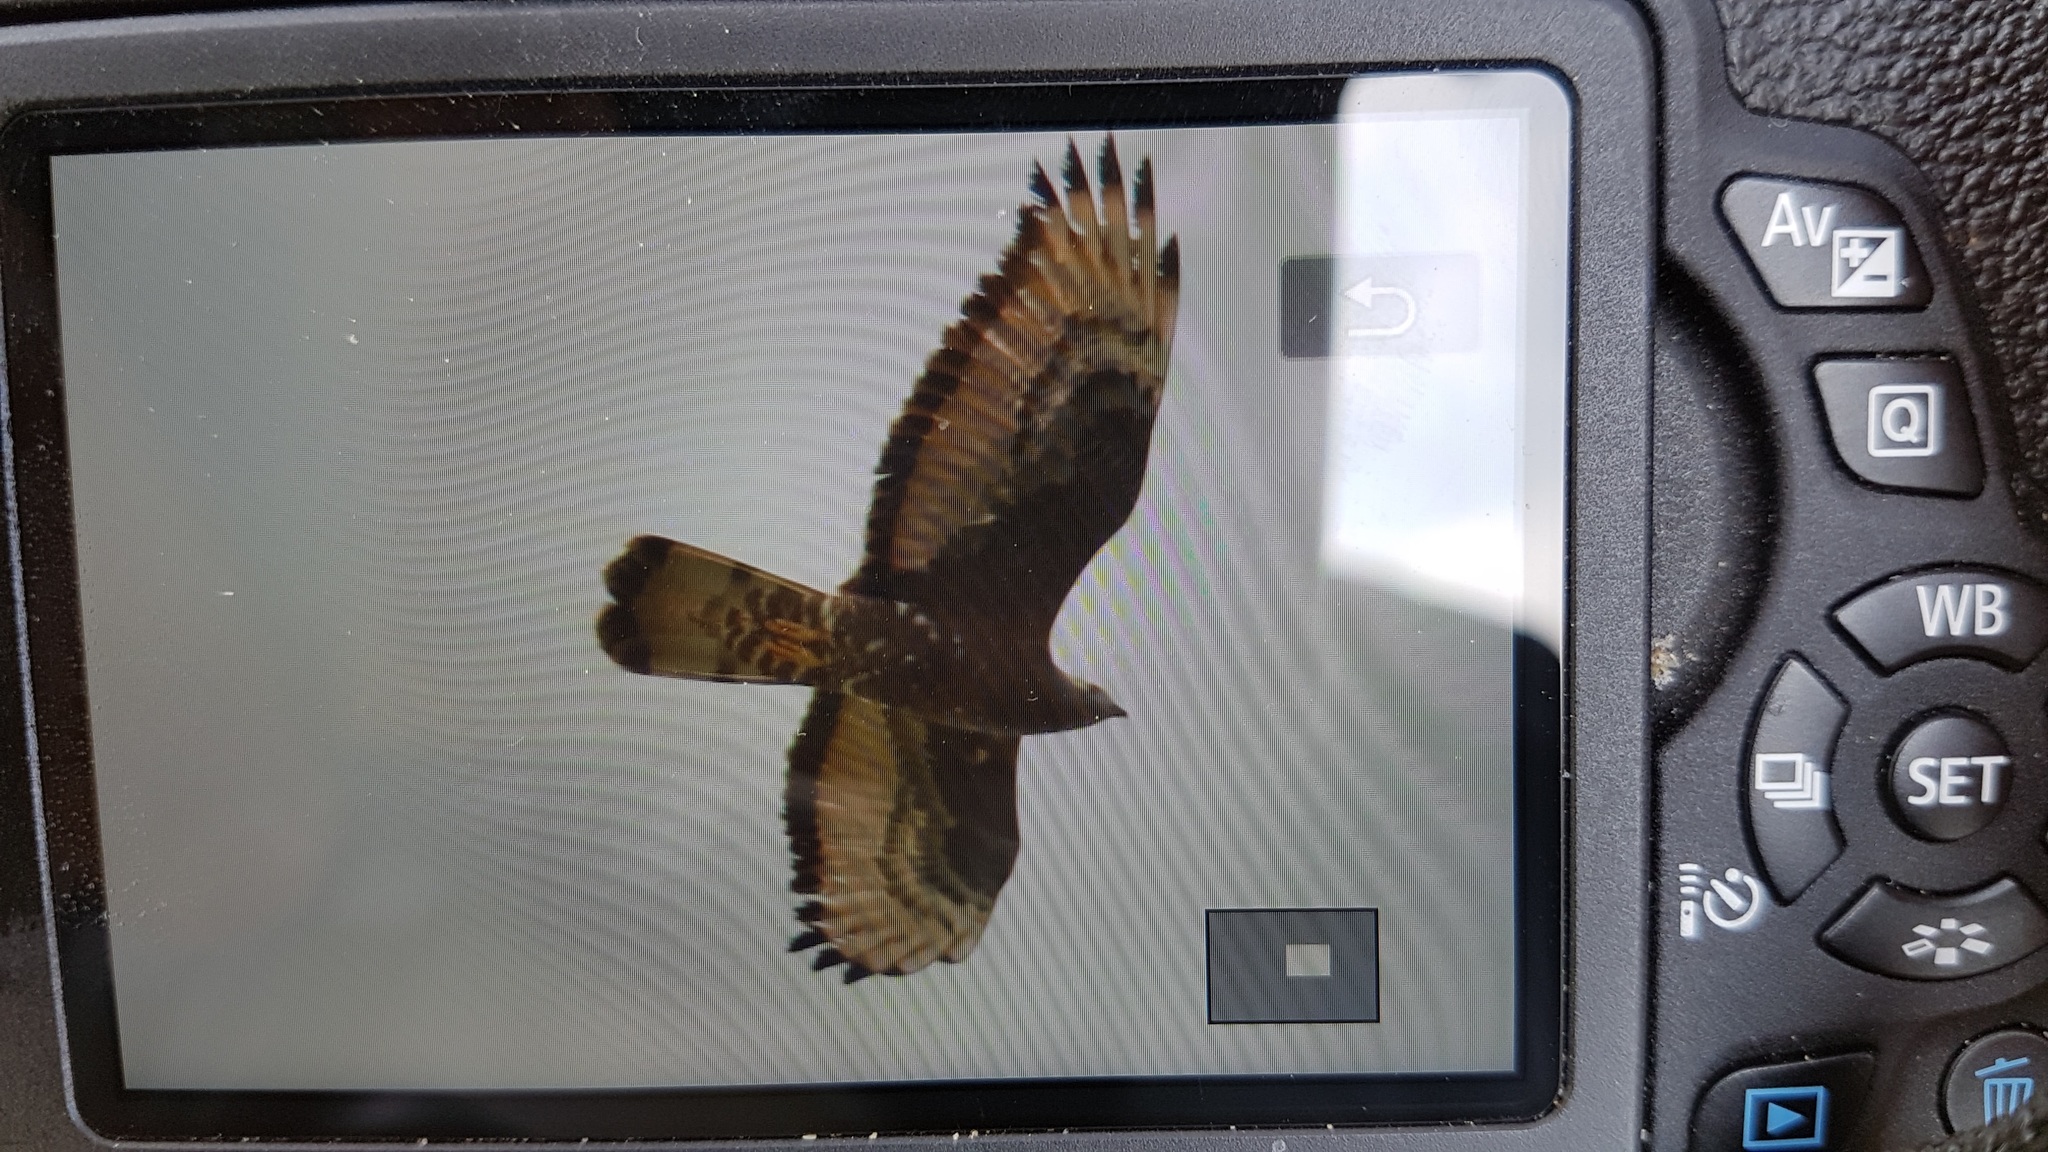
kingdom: Animalia
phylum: Chordata
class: Aves
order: Accipitriformes
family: Accipitridae
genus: Pernis
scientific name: Pernis apivorus
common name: European honey buzzard
